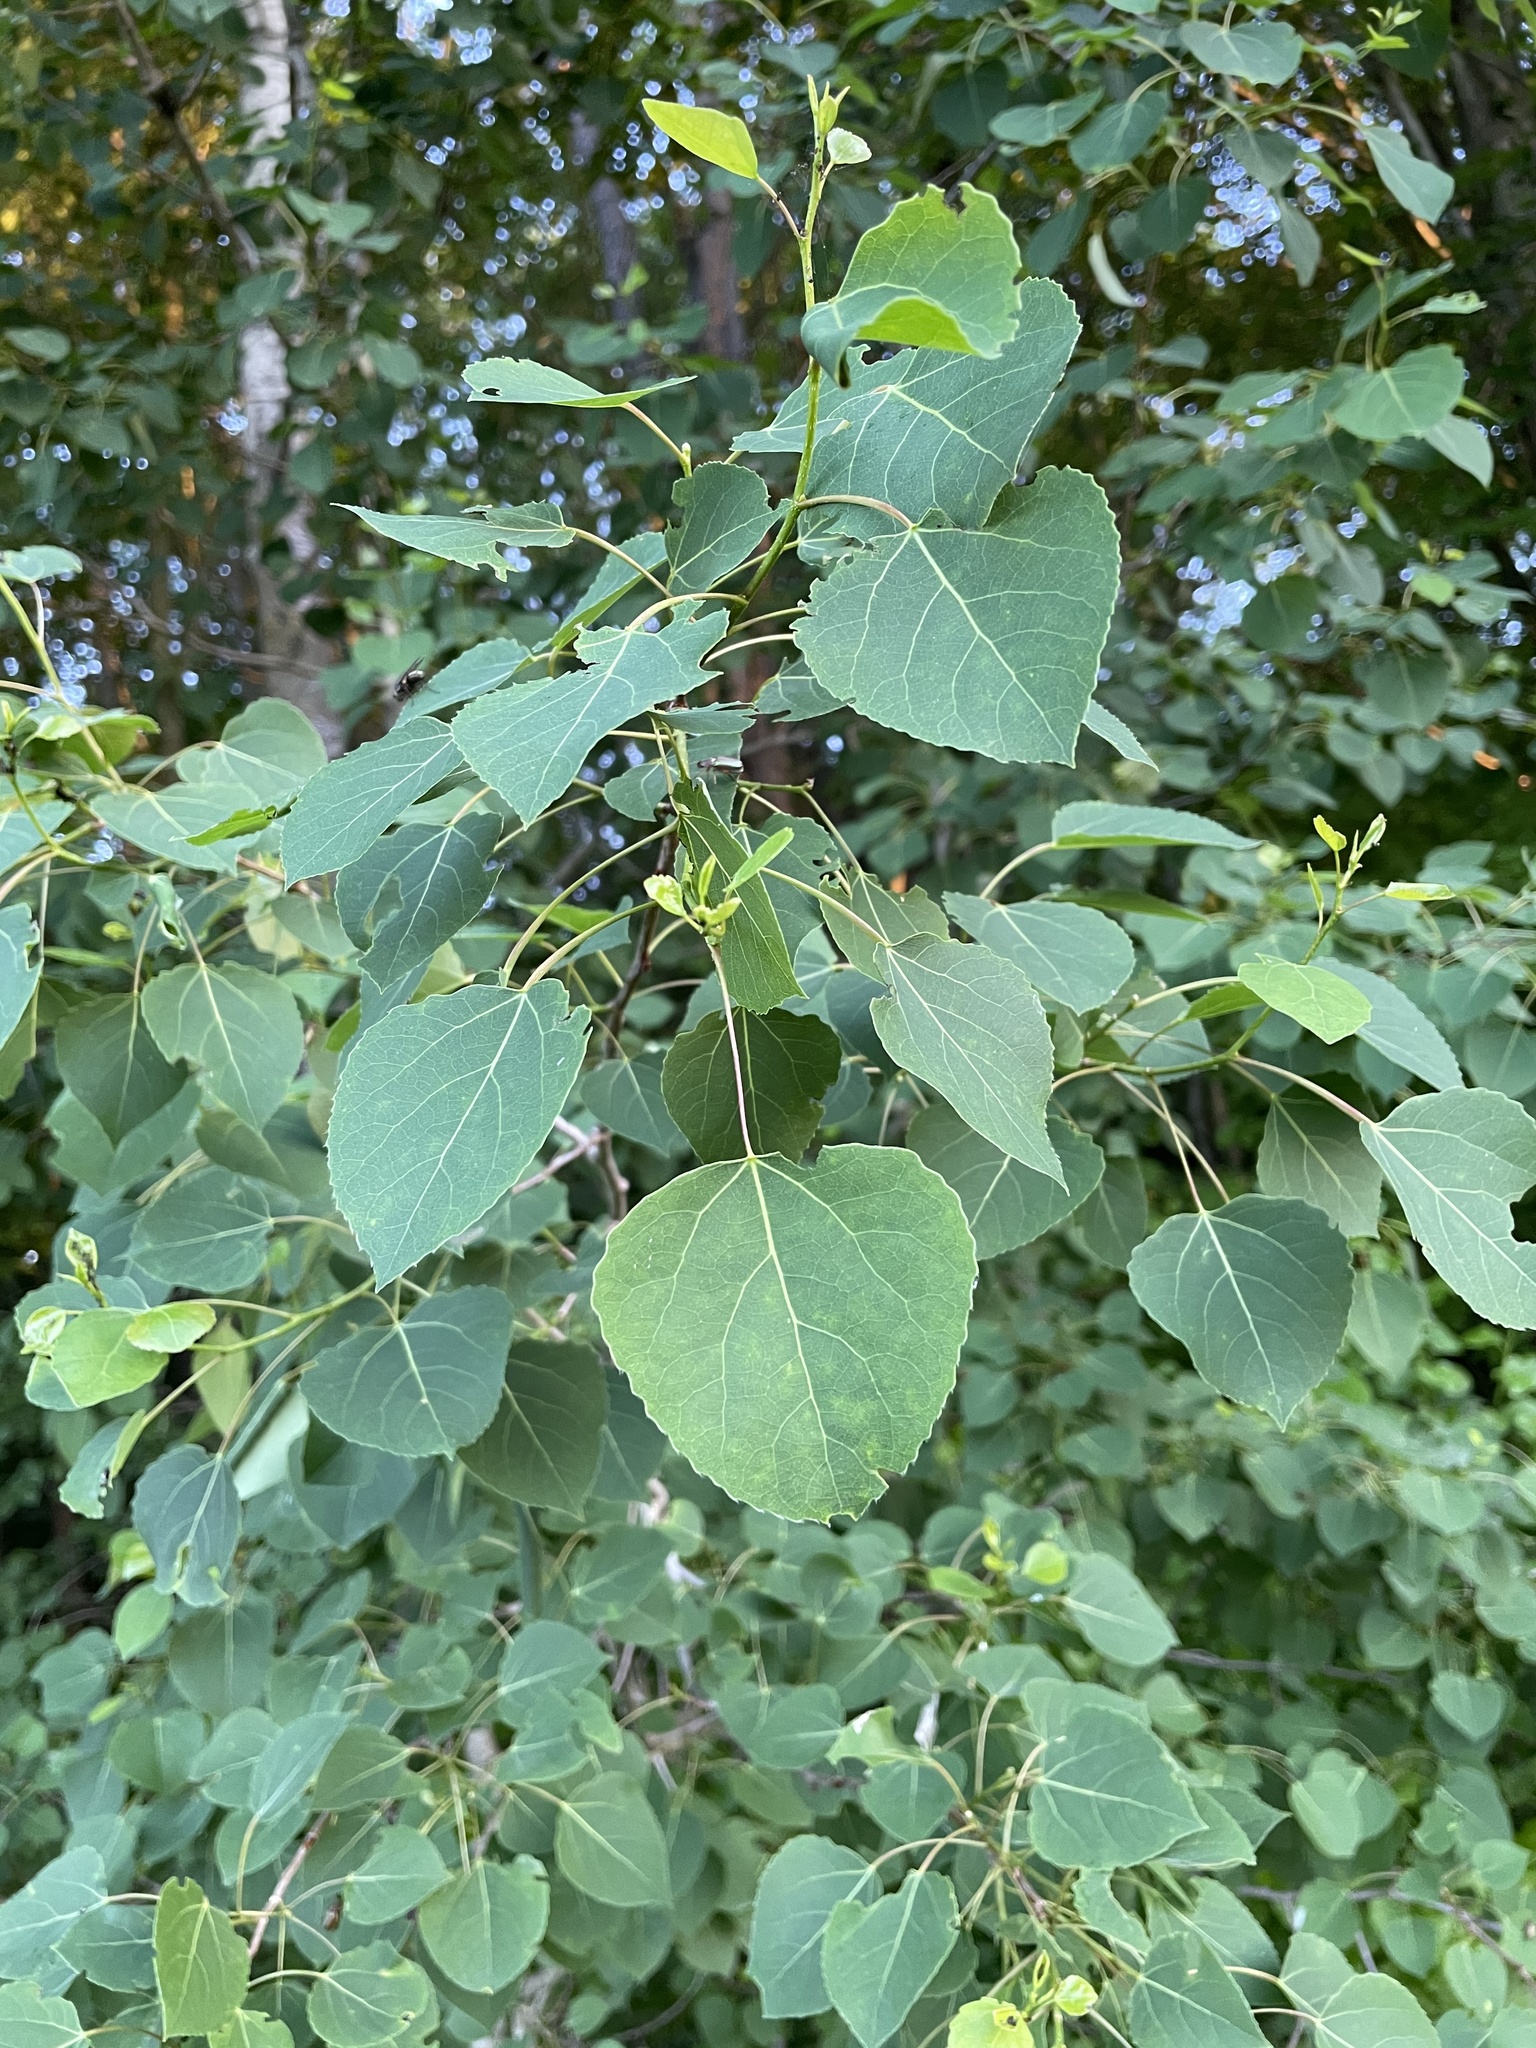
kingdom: Plantae
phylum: Tracheophyta
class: Magnoliopsida
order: Malpighiales
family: Salicaceae
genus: Populus
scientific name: Populus tremuloides
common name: Quaking aspen
